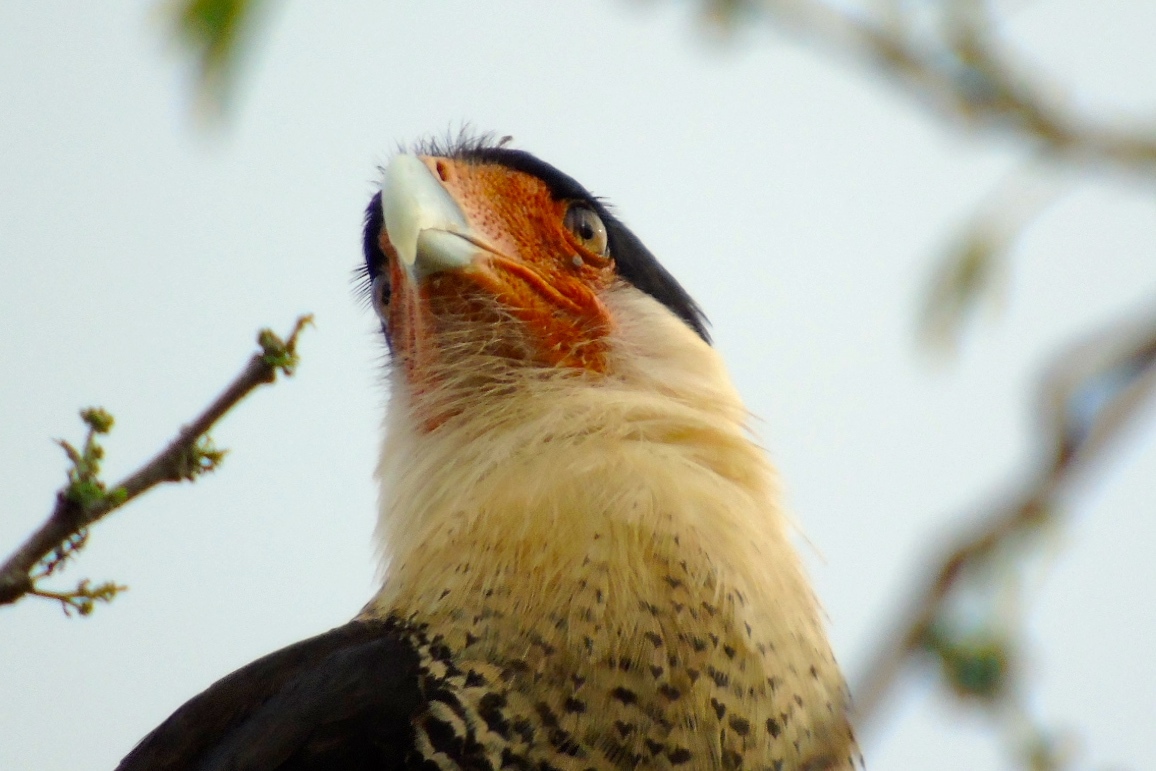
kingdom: Animalia
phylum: Chordata
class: Aves
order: Falconiformes
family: Falconidae
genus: Caracara
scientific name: Caracara plancus
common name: Southern caracara
